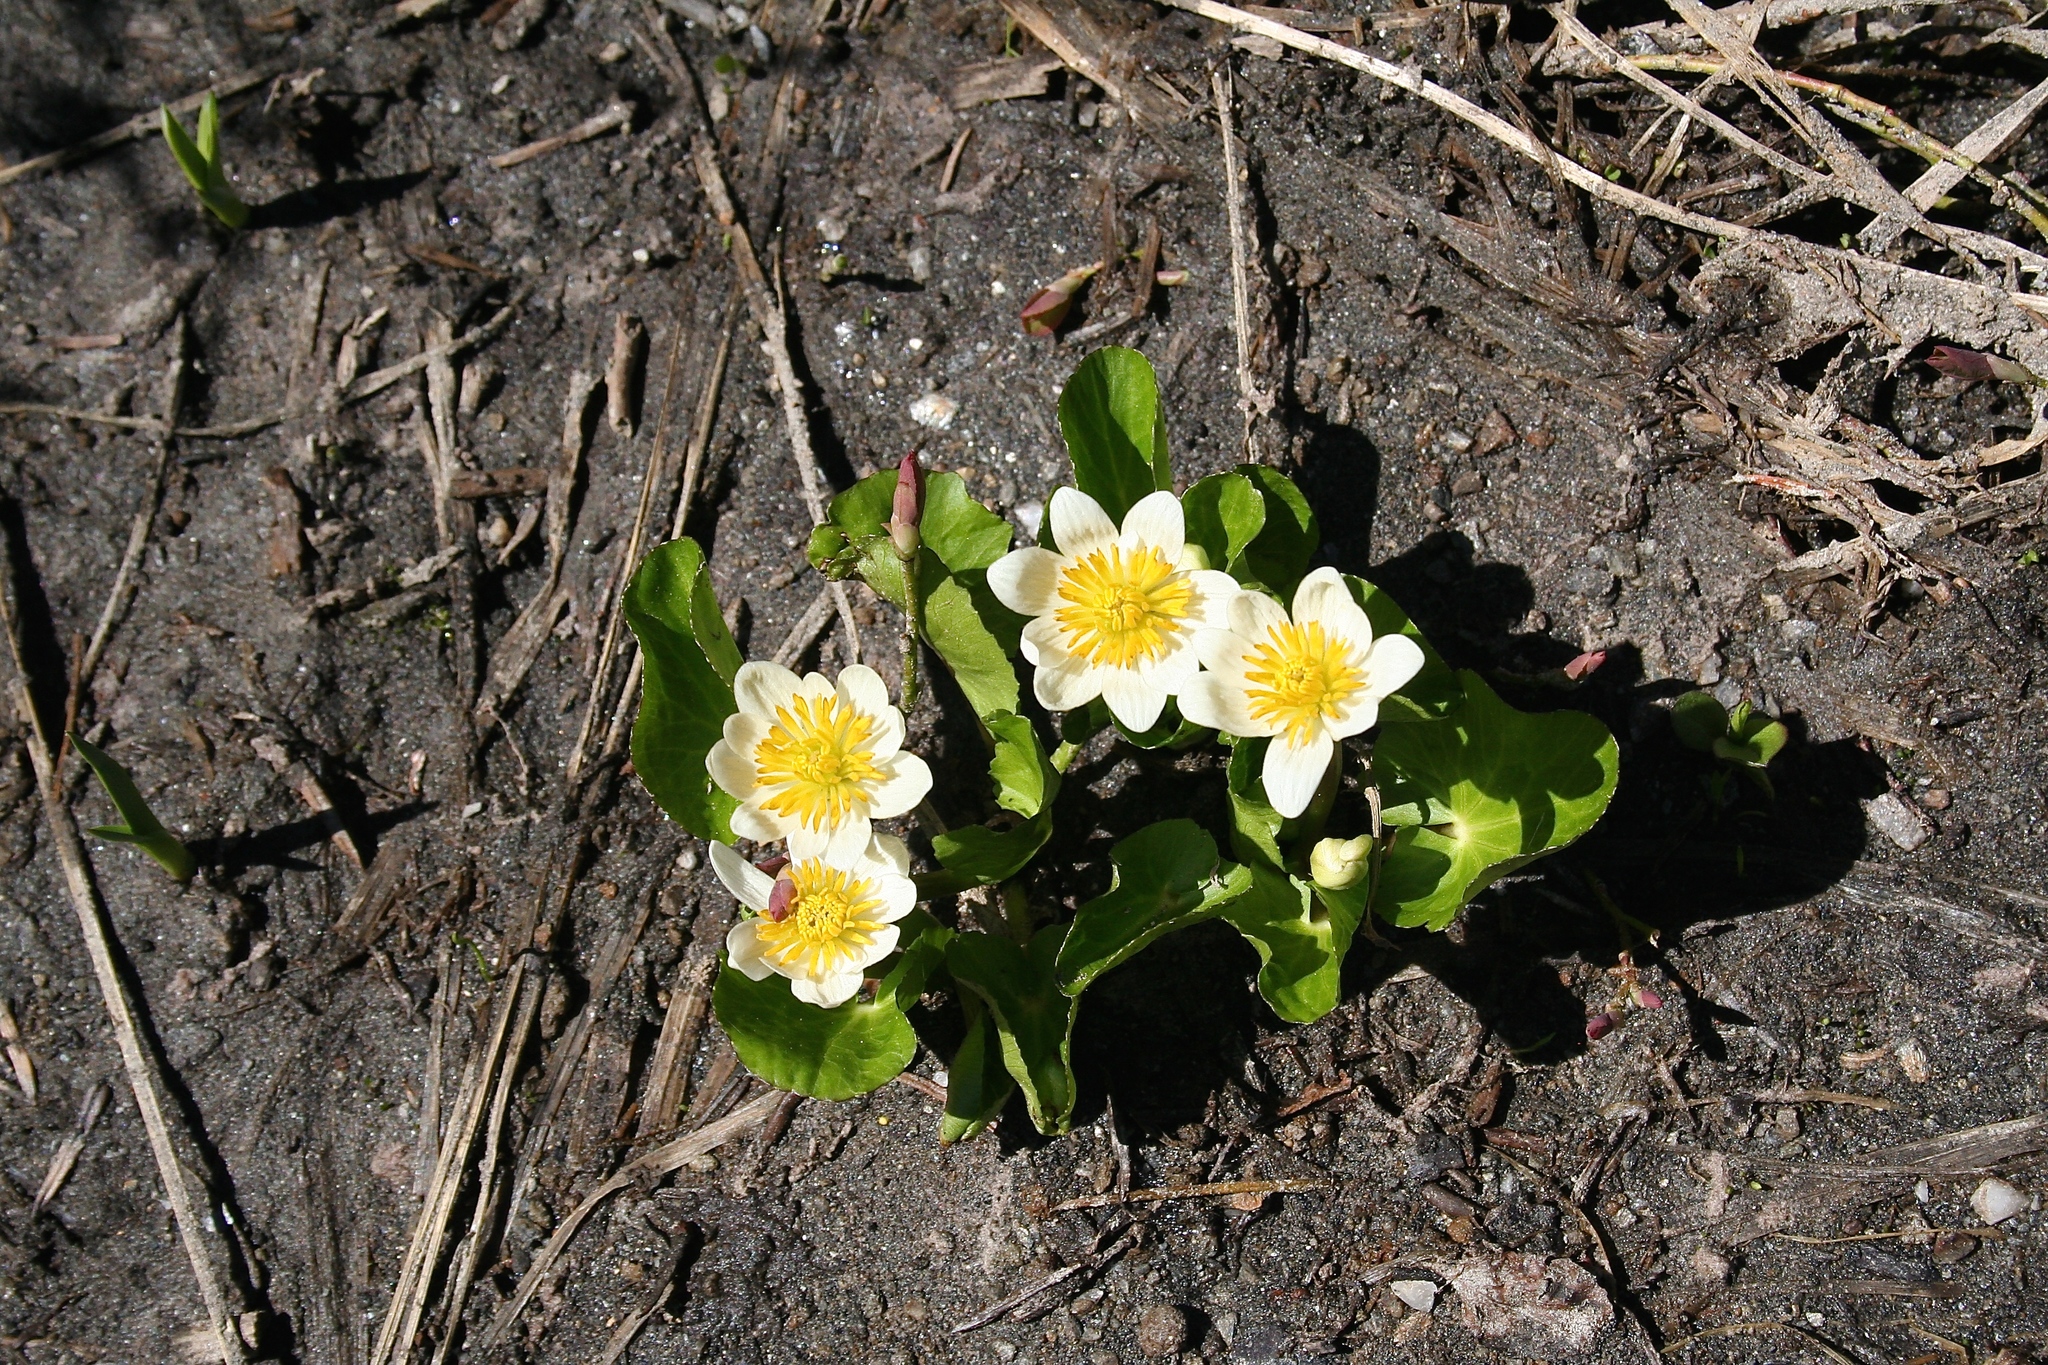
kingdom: Plantae
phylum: Tracheophyta
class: Magnoliopsida
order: Ranunculales
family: Ranunculaceae
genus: Caltha
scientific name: Caltha leptosepala
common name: Elkslip
